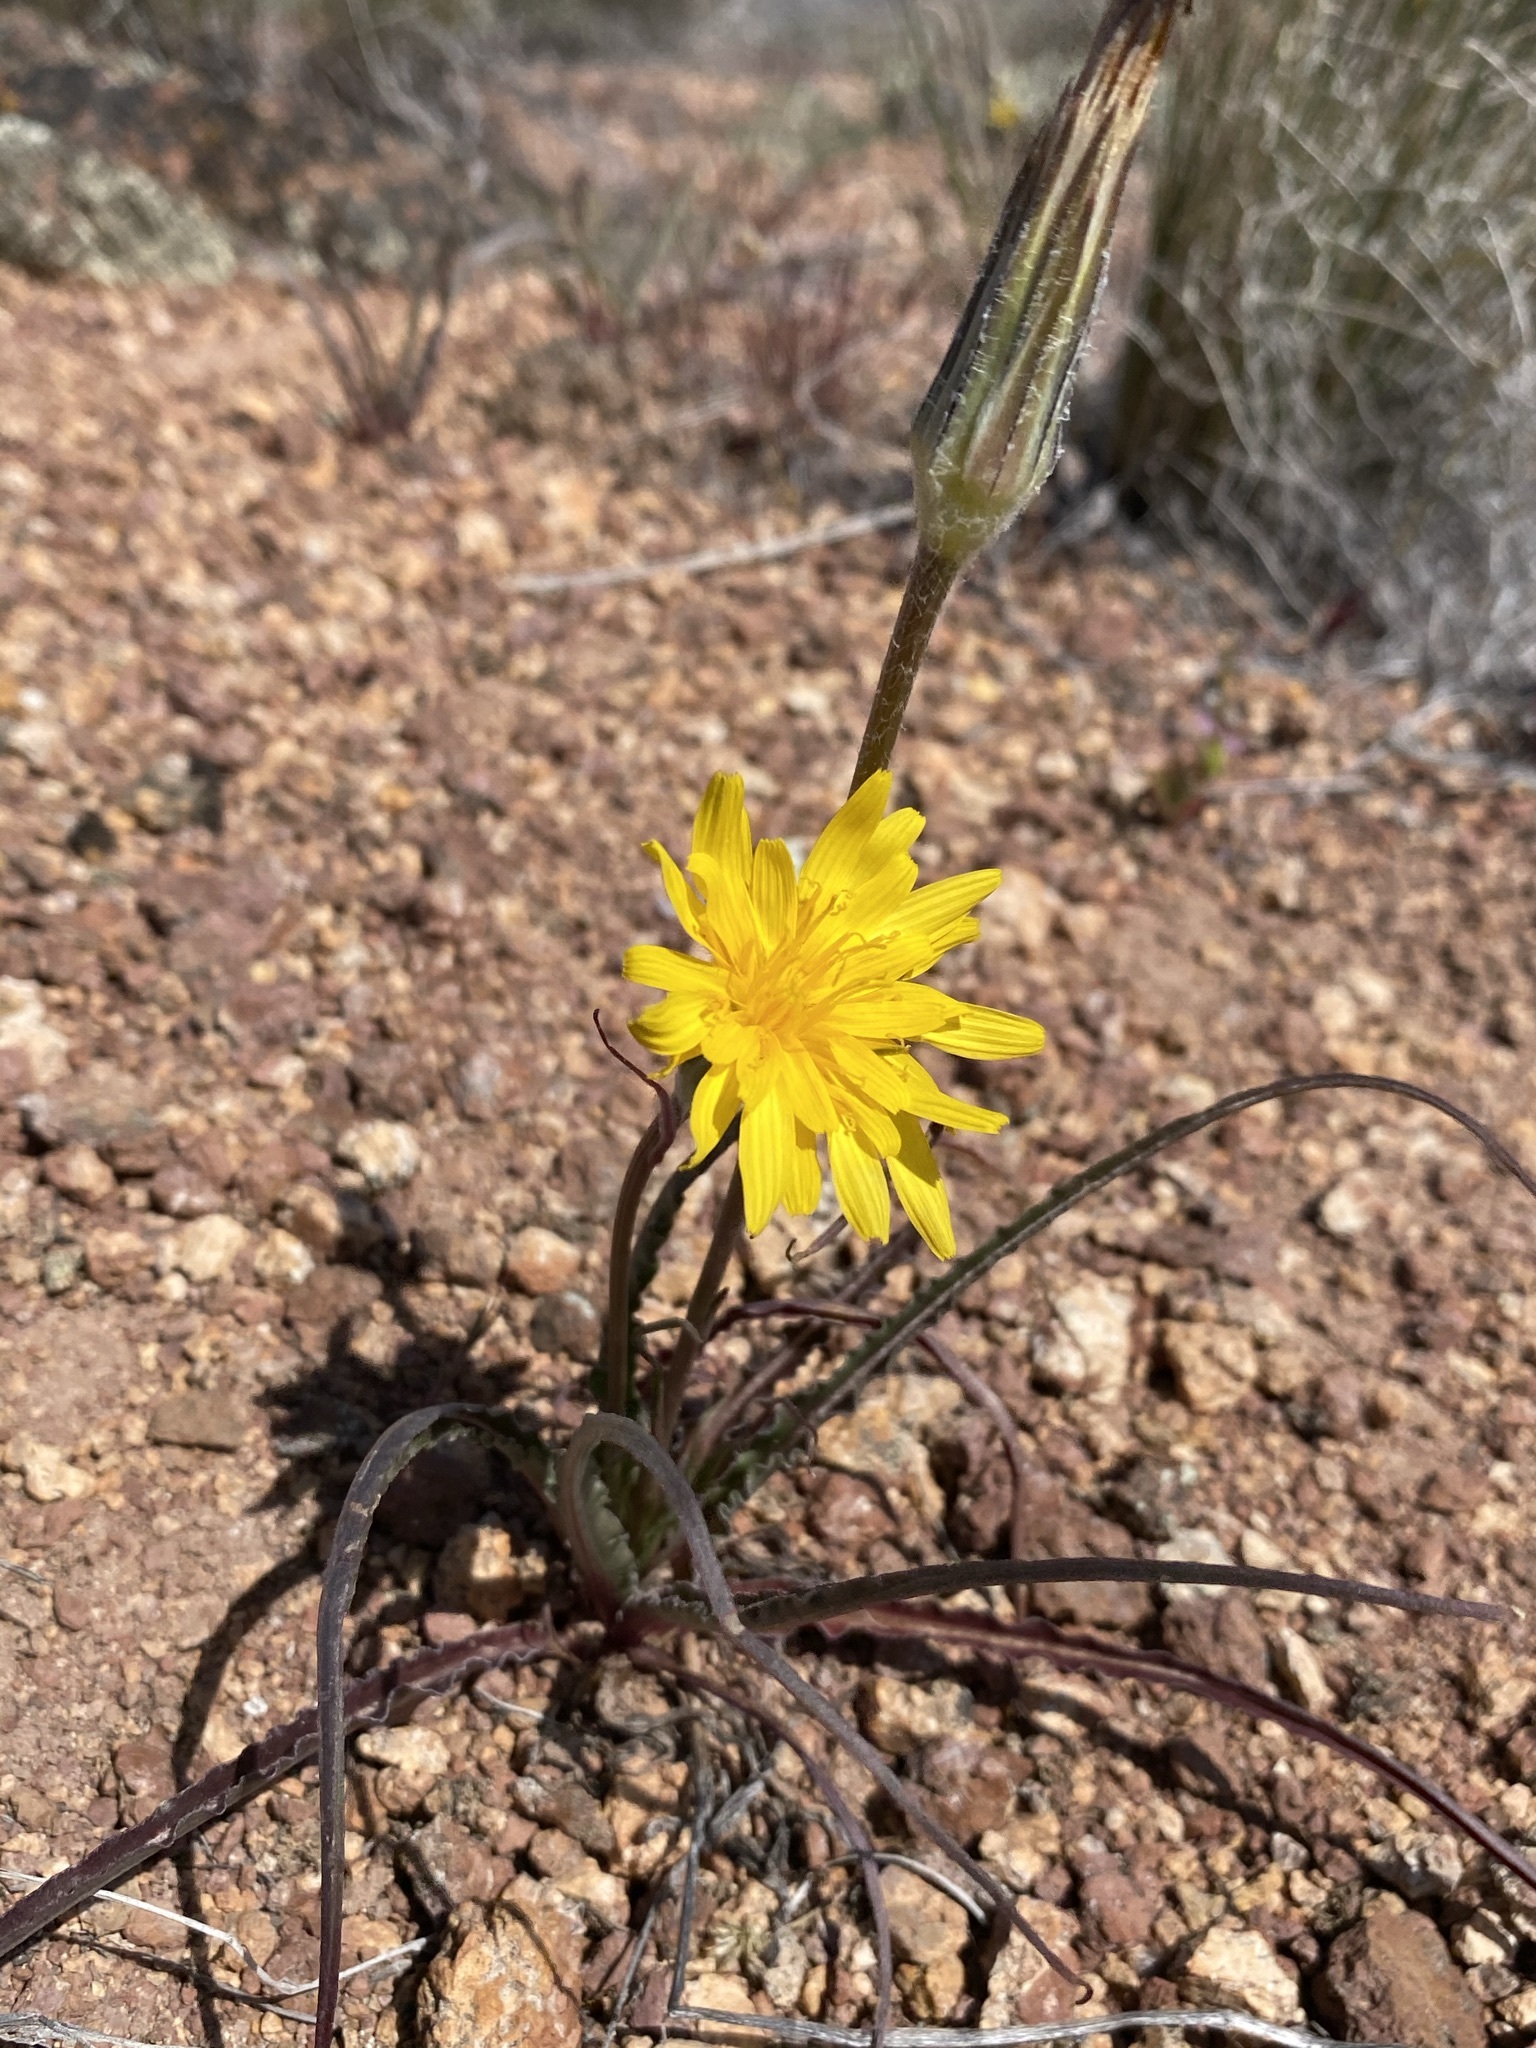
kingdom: Plantae
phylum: Tracheophyta
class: Magnoliopsida
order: Asterales
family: Asteraceae
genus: Microseris
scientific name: Microseris troximoides
